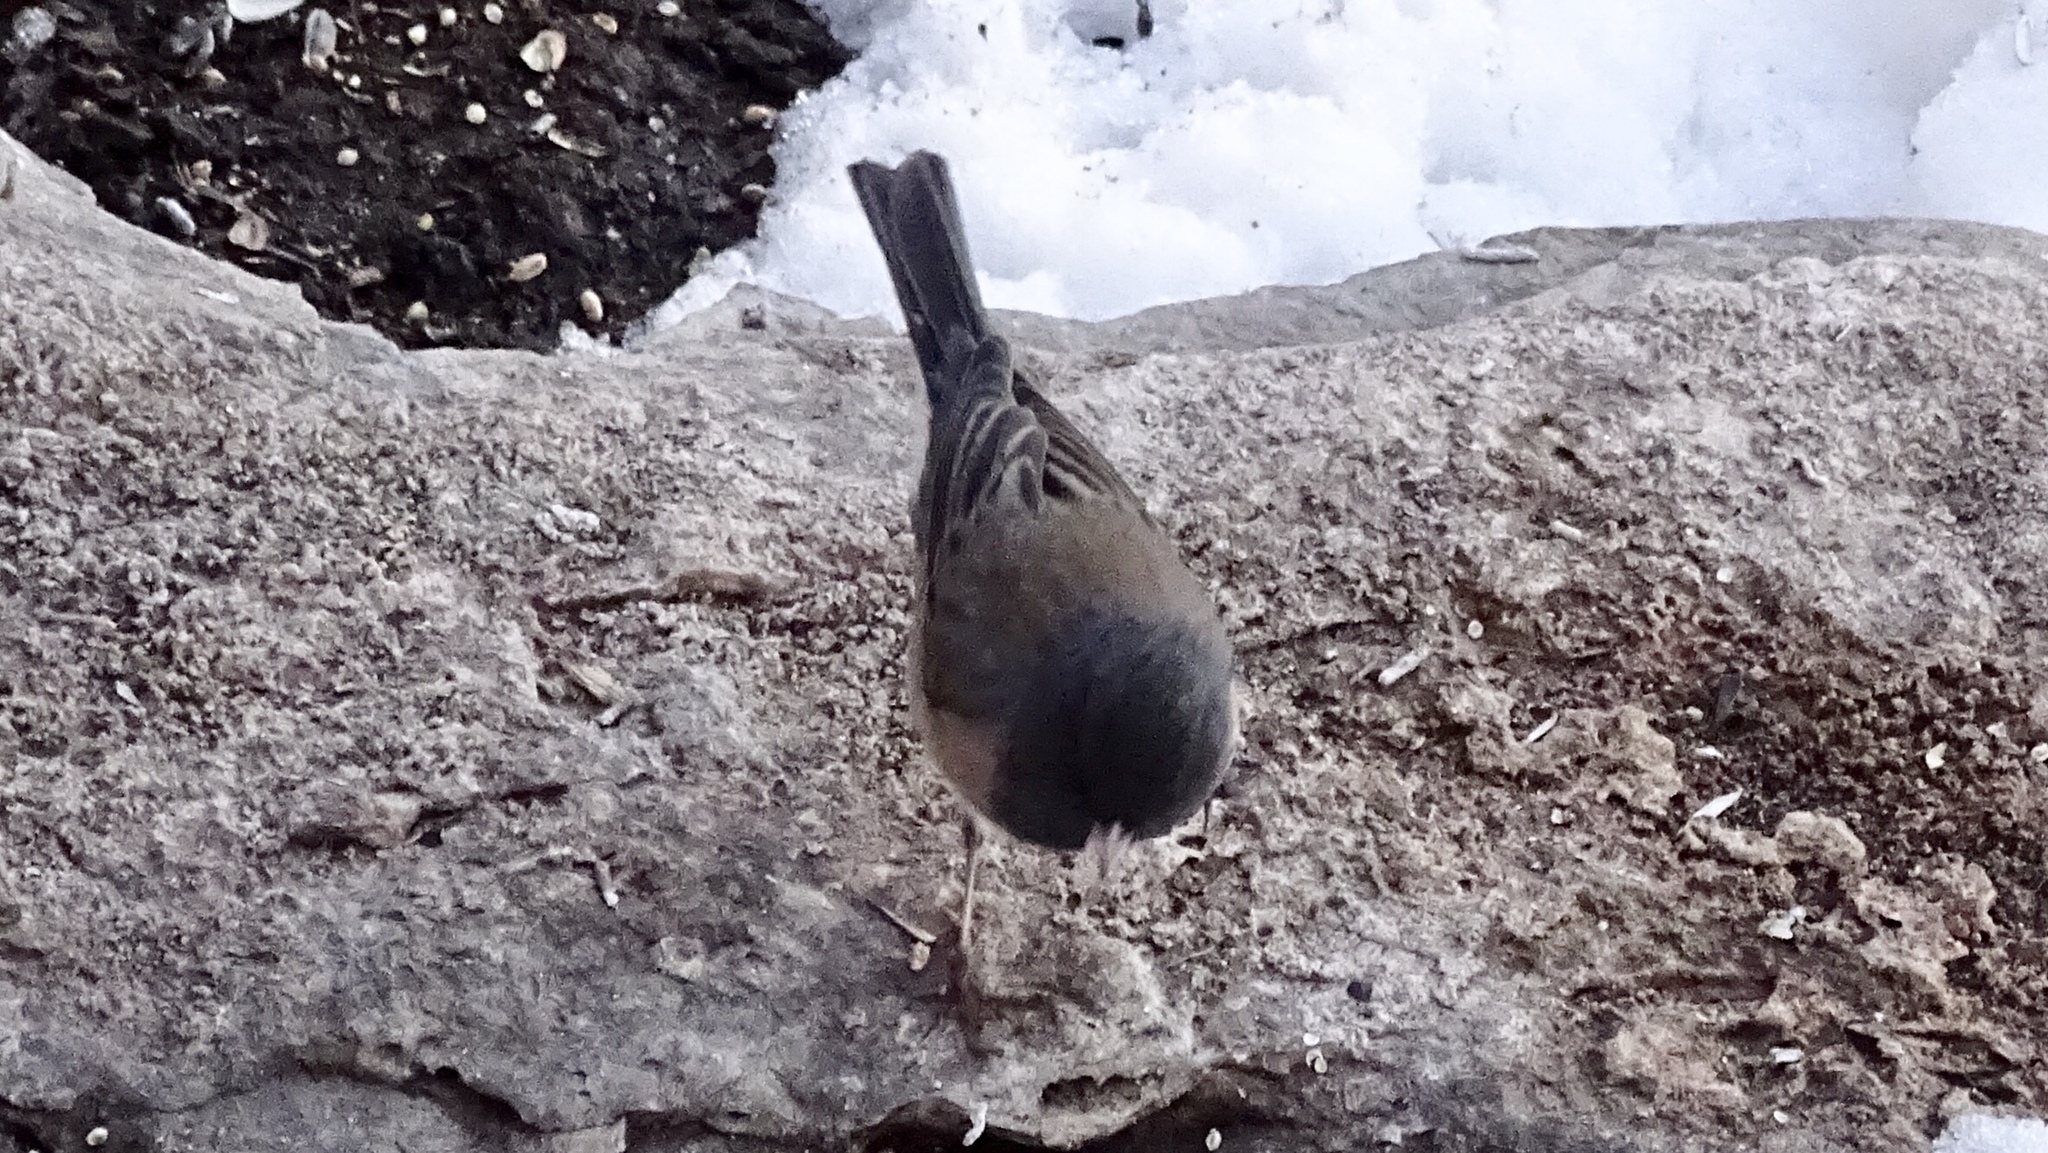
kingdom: Animalia
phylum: Chordata
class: Aves
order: Passeriformes
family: Passerellidae
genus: Junco
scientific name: Junco hyemalis
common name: Dark-eyed junco
